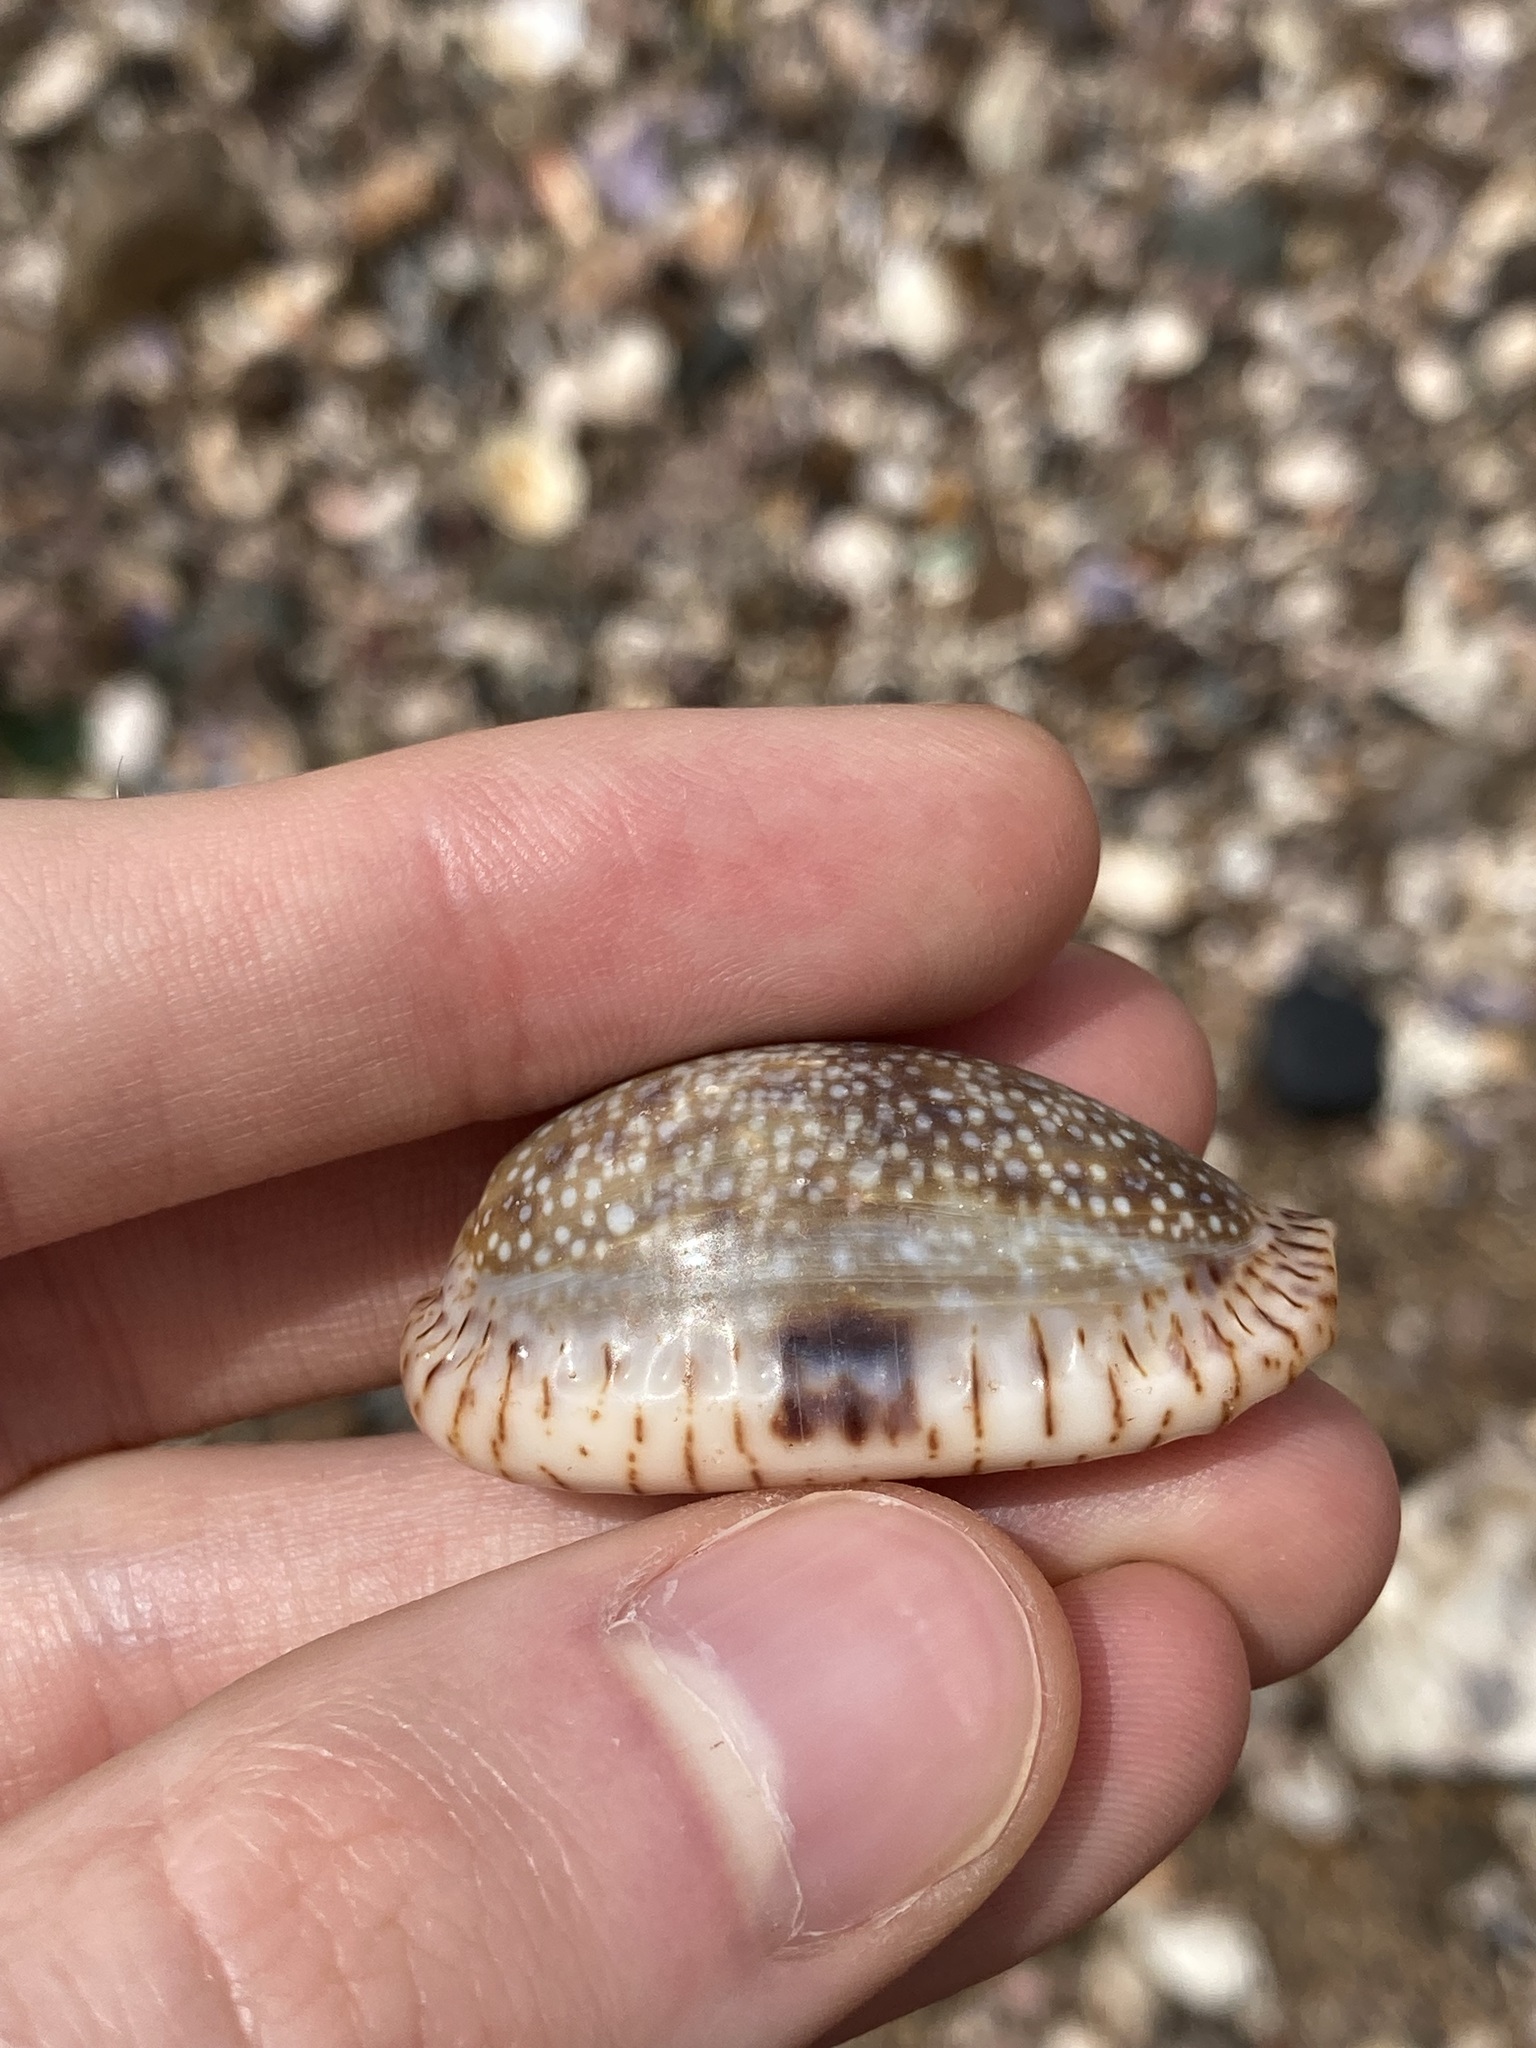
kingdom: Animalia
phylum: Mollusca
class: Gastropoda
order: Littorinimorpha
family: Cypraeidae
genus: Naria
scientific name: Naria erosa
